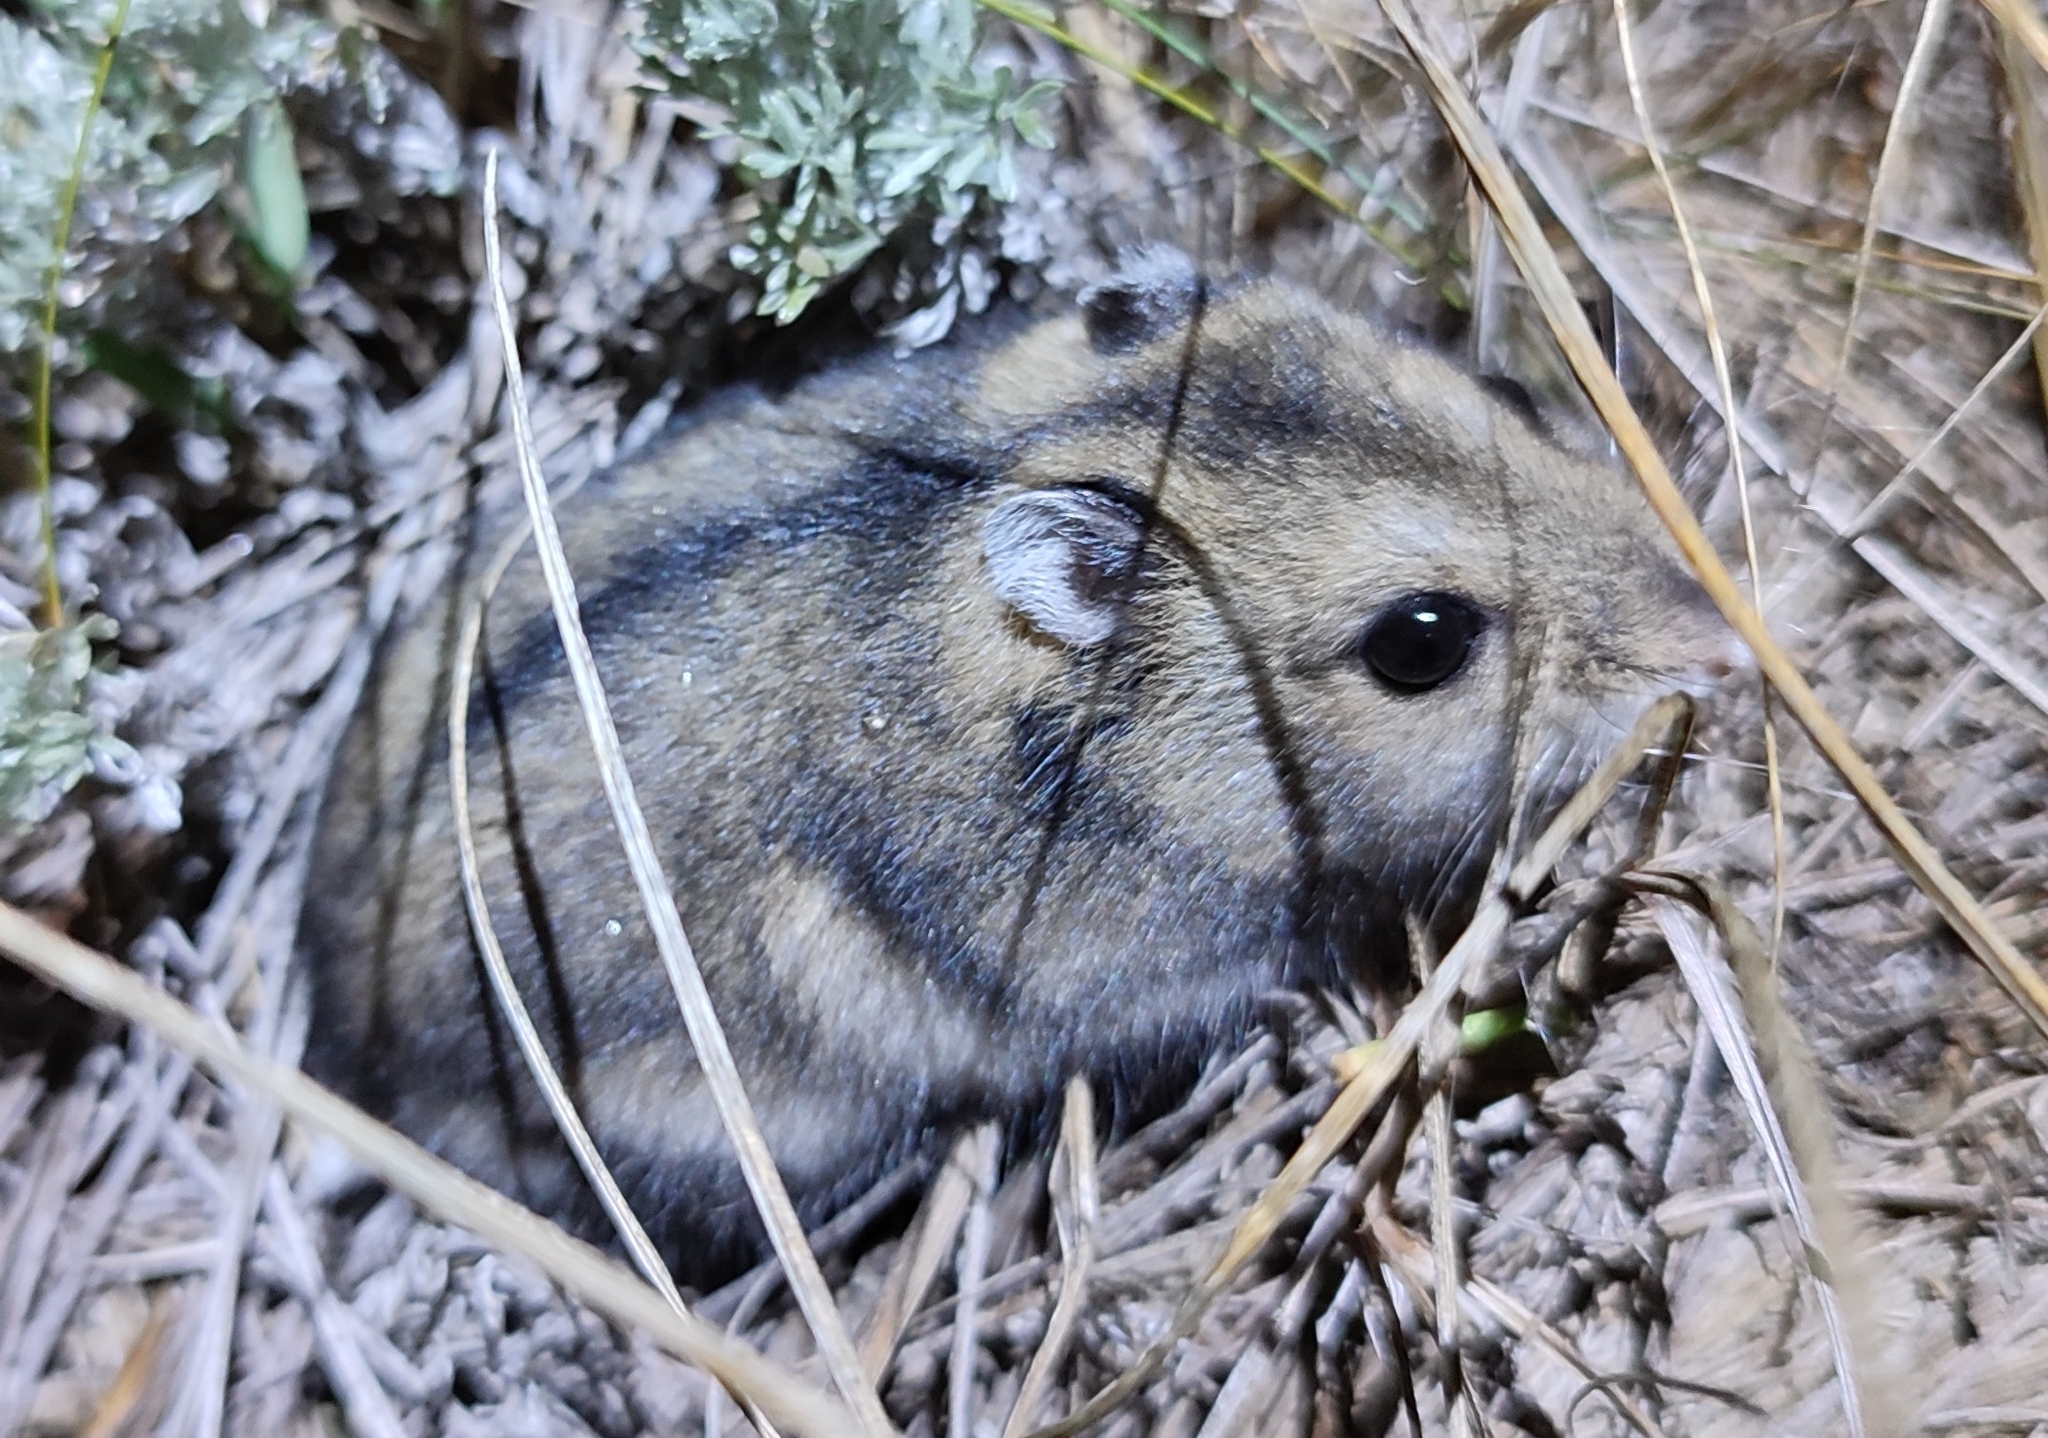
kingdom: Animalia
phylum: Chordata
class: Mammalia
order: Rodentia
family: Cricetidae
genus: Phodopus
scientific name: Phodopus sungorus
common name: Striped desert hamster
